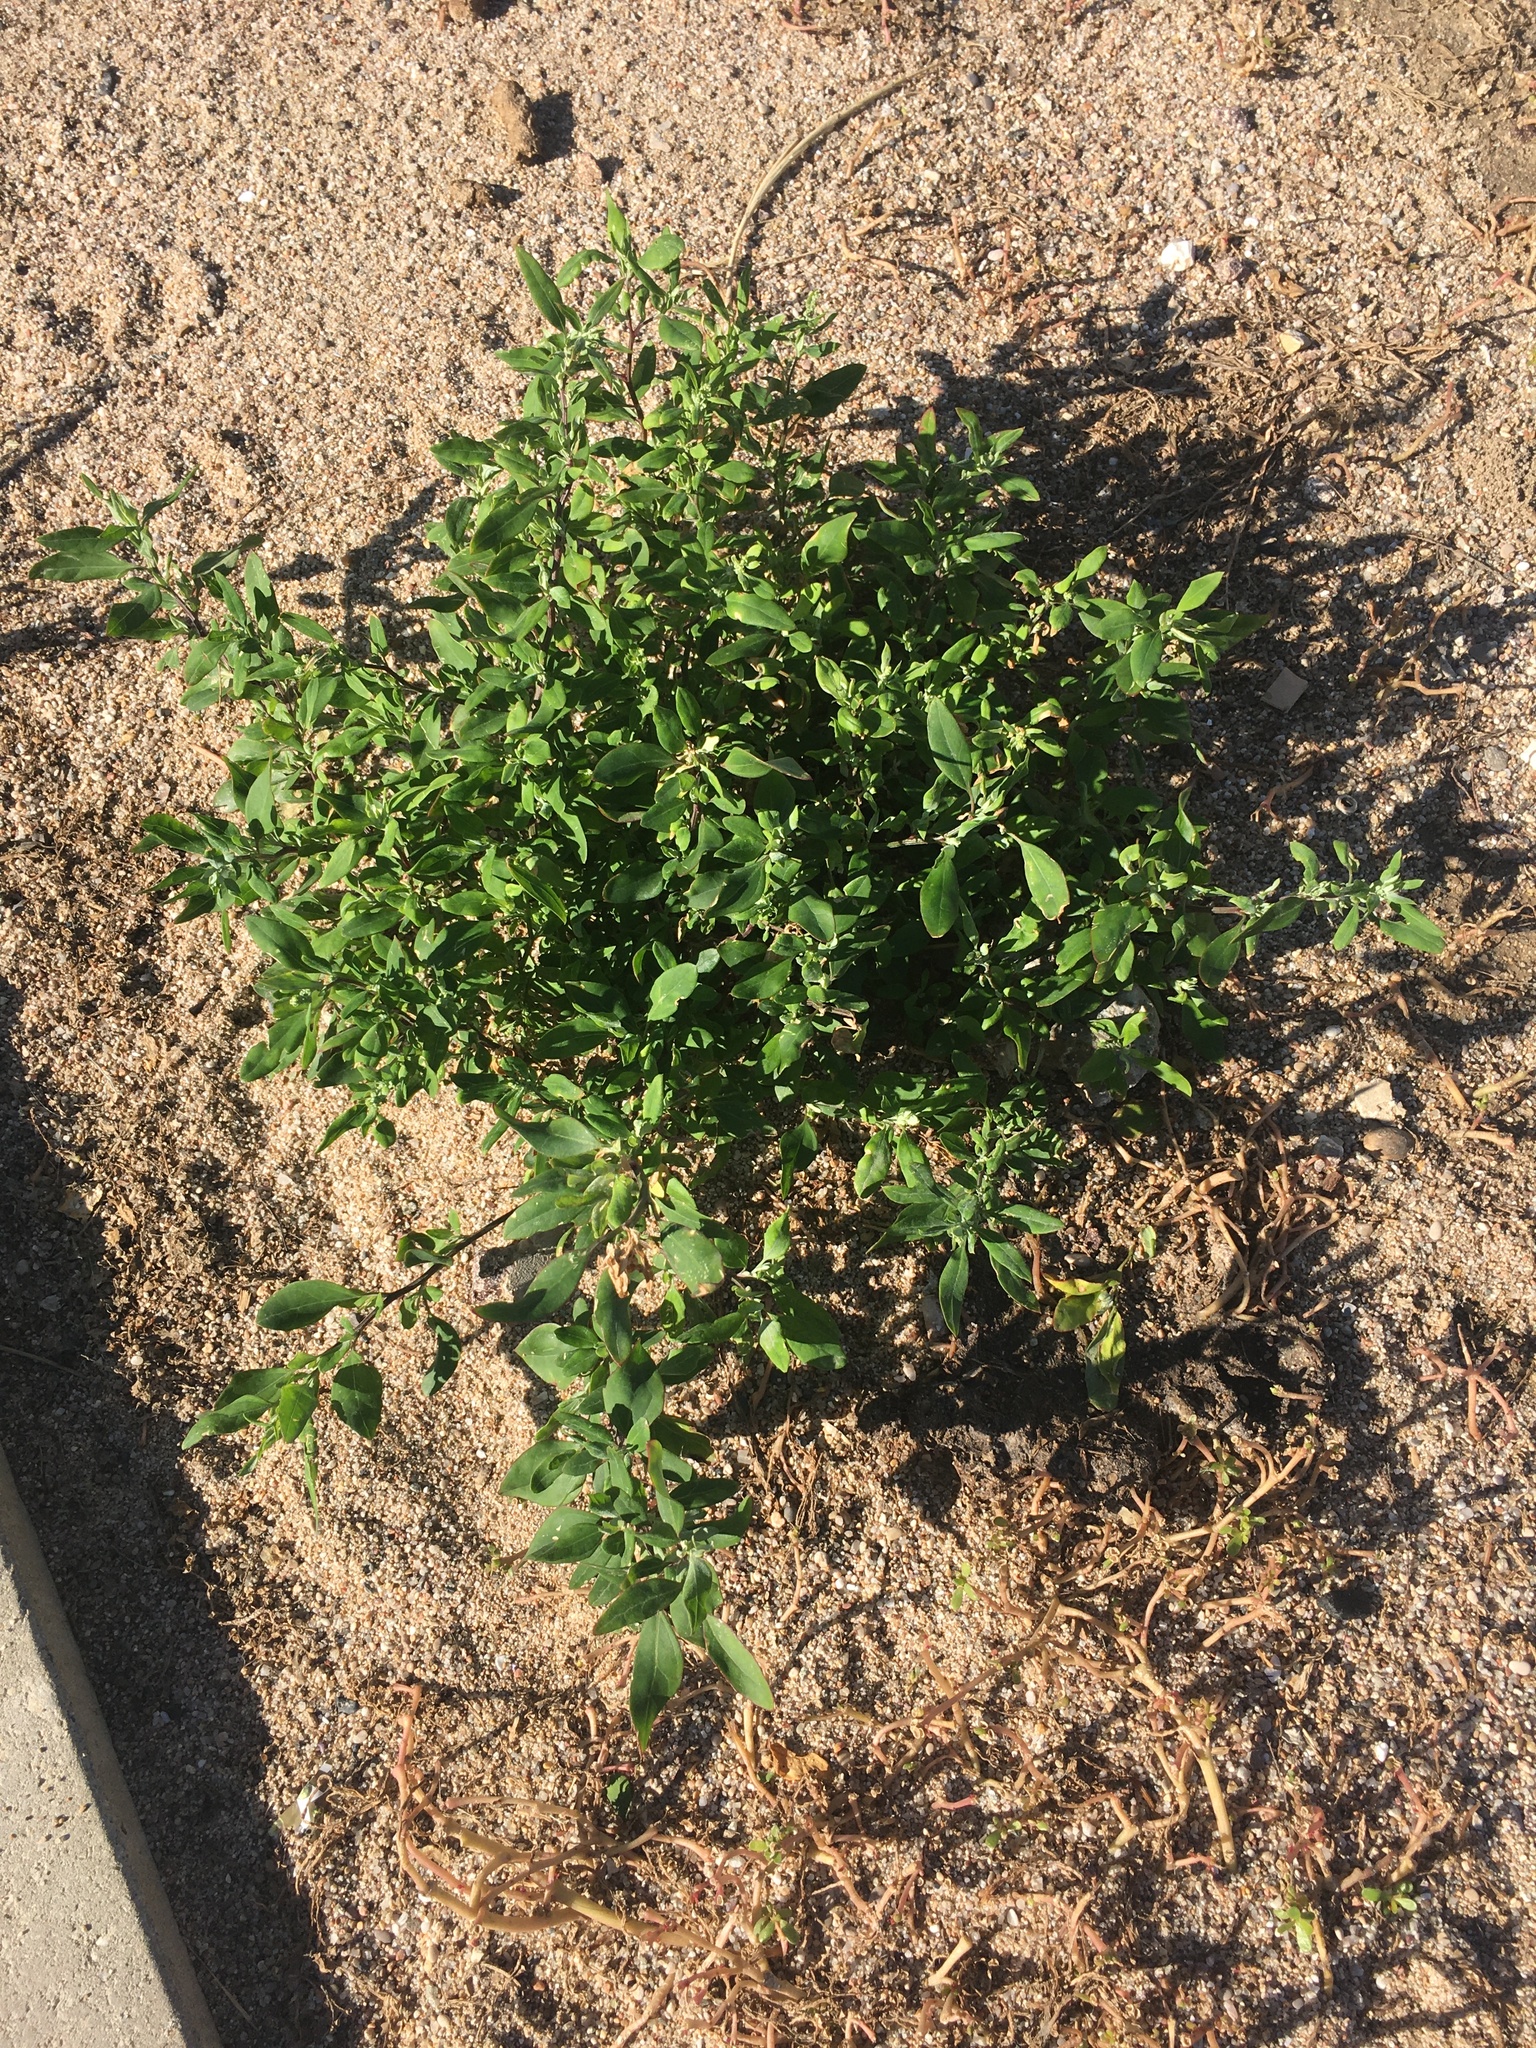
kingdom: Plantae
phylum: Tracheophyta
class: Magnoliopsida
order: Caryophyllales
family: Polygonaceae
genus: Polygonum
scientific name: Polygonum aviculare
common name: Prostrate knotweed
